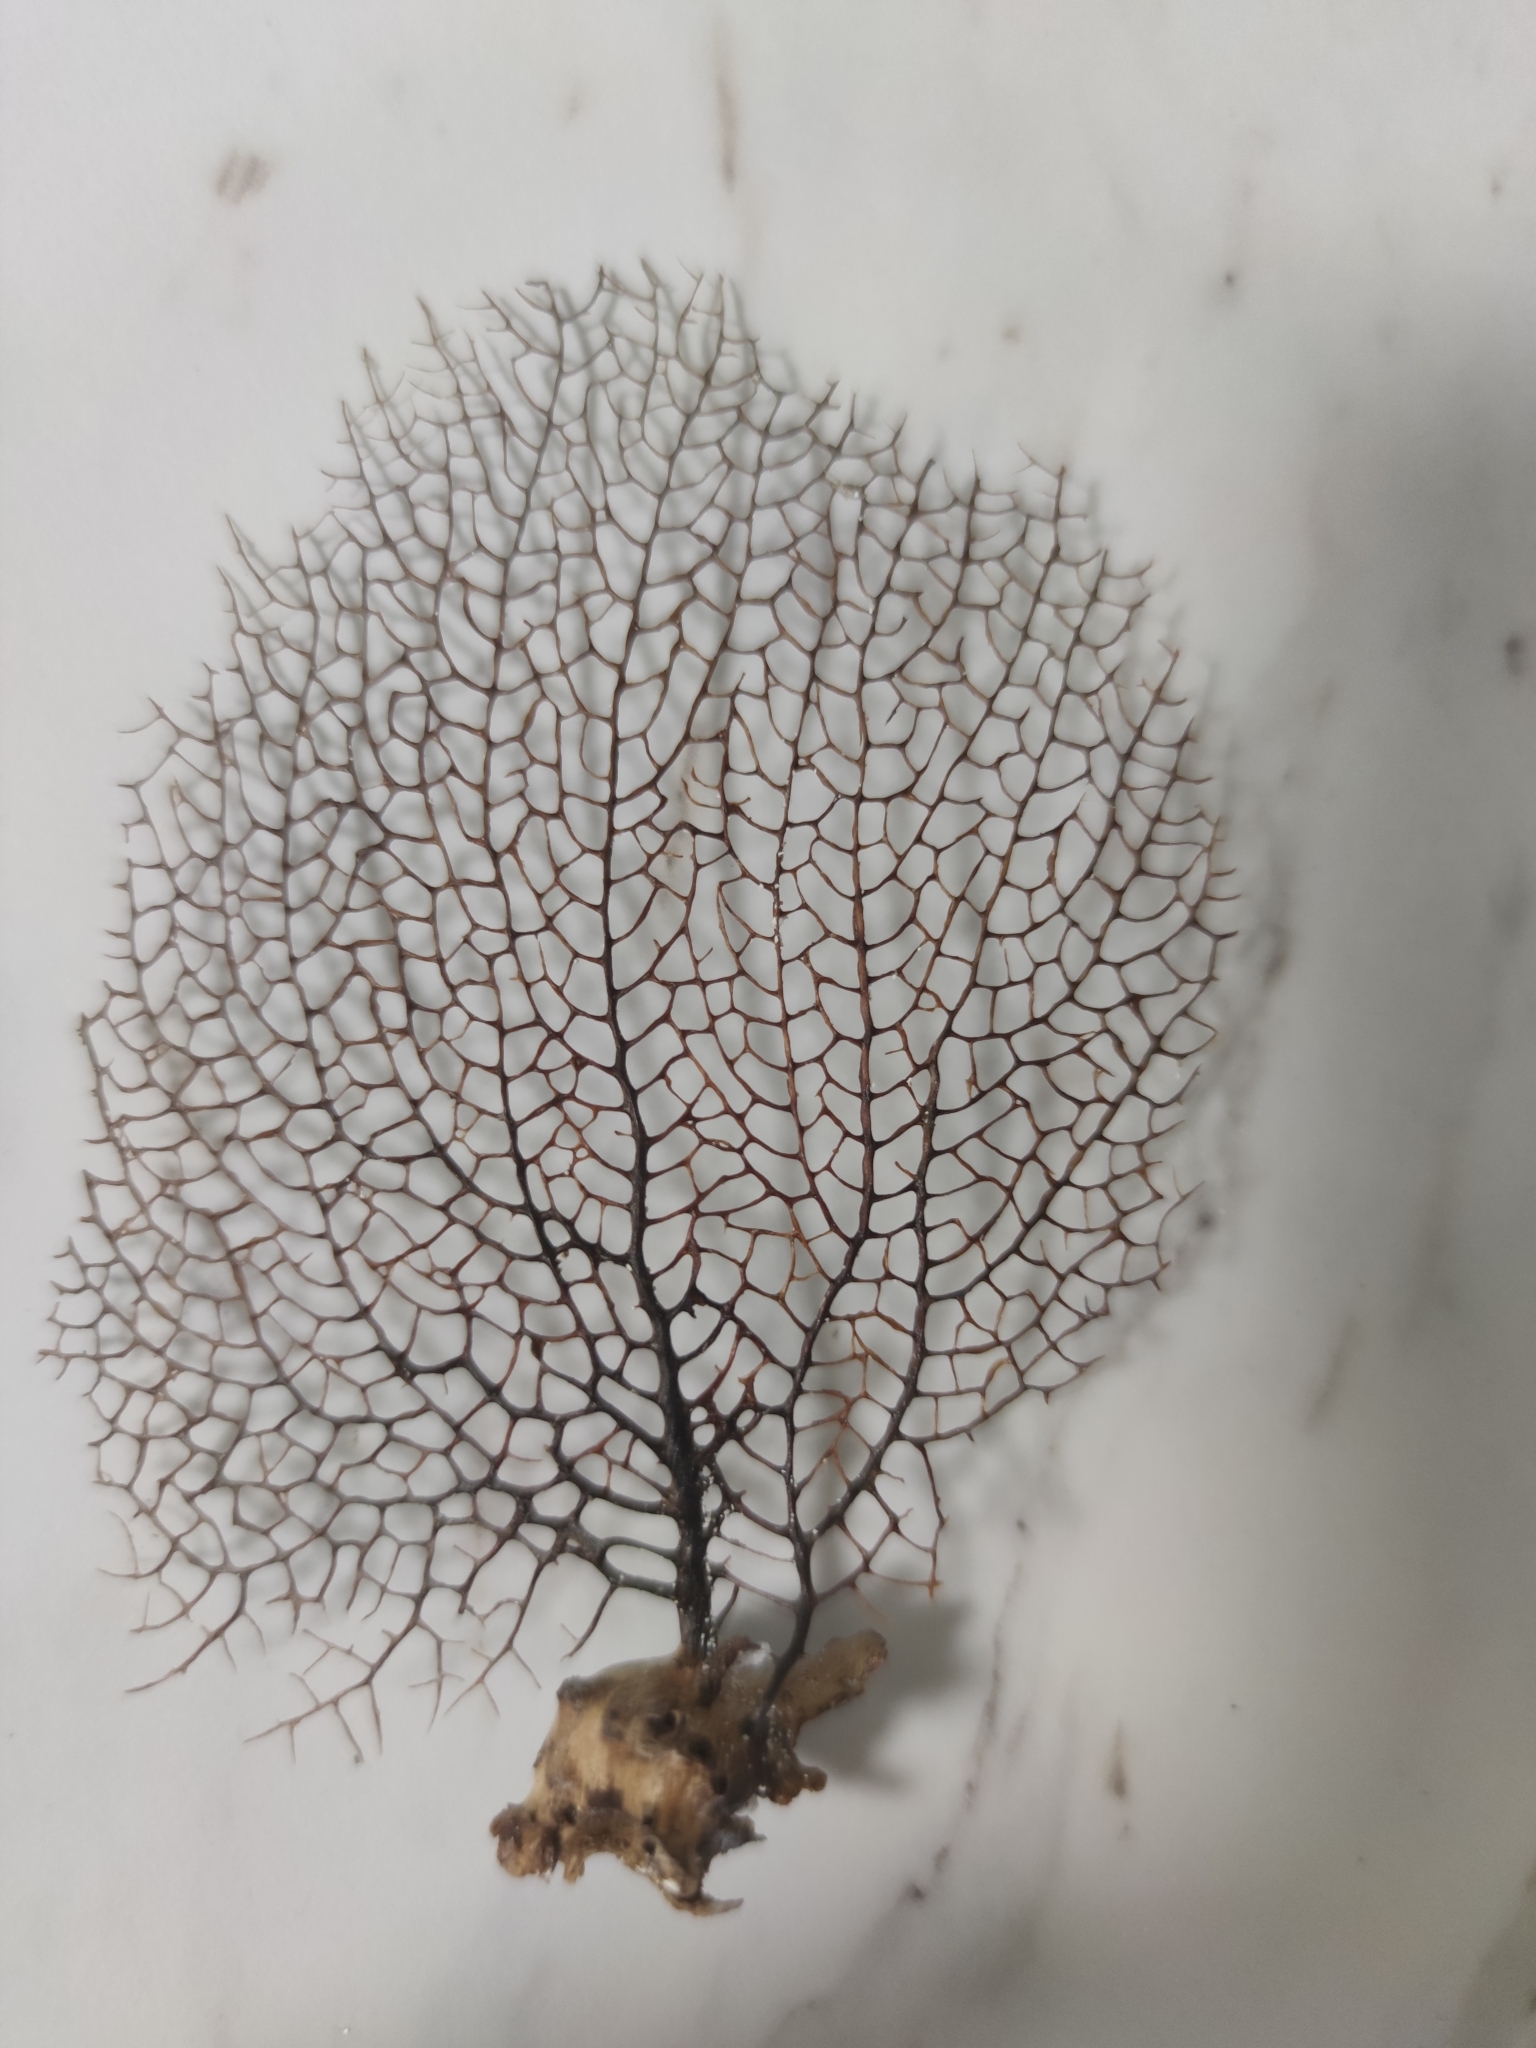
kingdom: Animalia
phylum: Cnidaria
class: Anthozoa
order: Malacalcyonacea
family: Gorgoniidae
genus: Gorgonia
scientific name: Gorgonia ventalina
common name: Common sea fan
